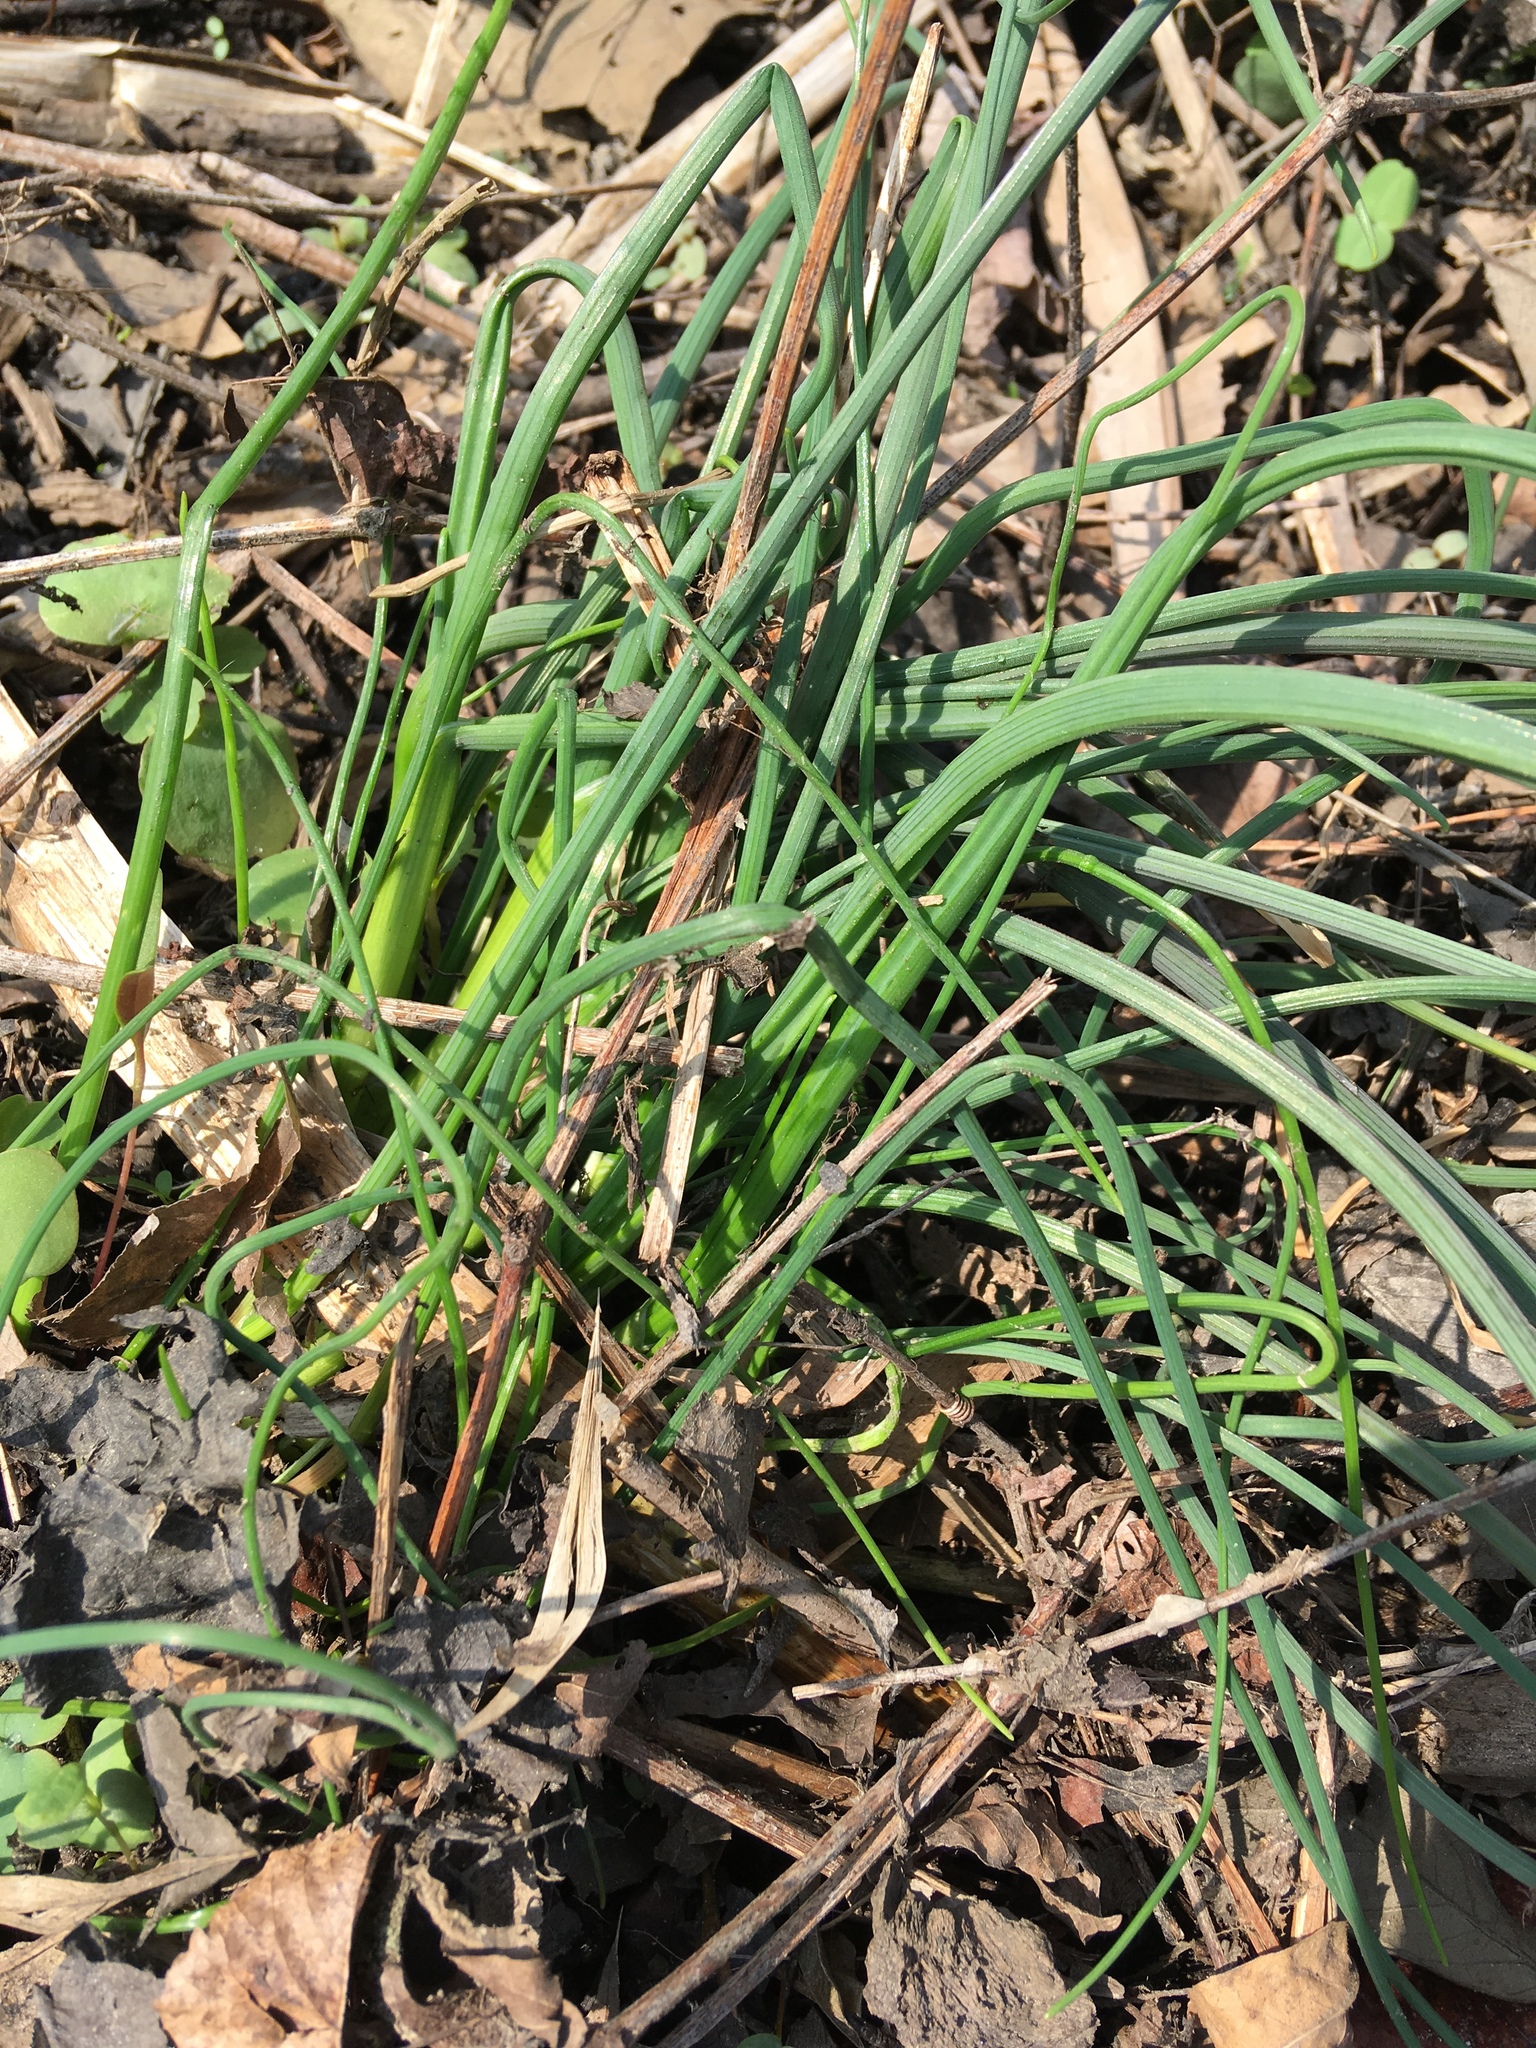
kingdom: Plantae
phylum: Tracheophyta
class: Liliopsida
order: Asparagales
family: Amaryllidaceae
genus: Allium
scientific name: Allium vineale
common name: Crow garlic
